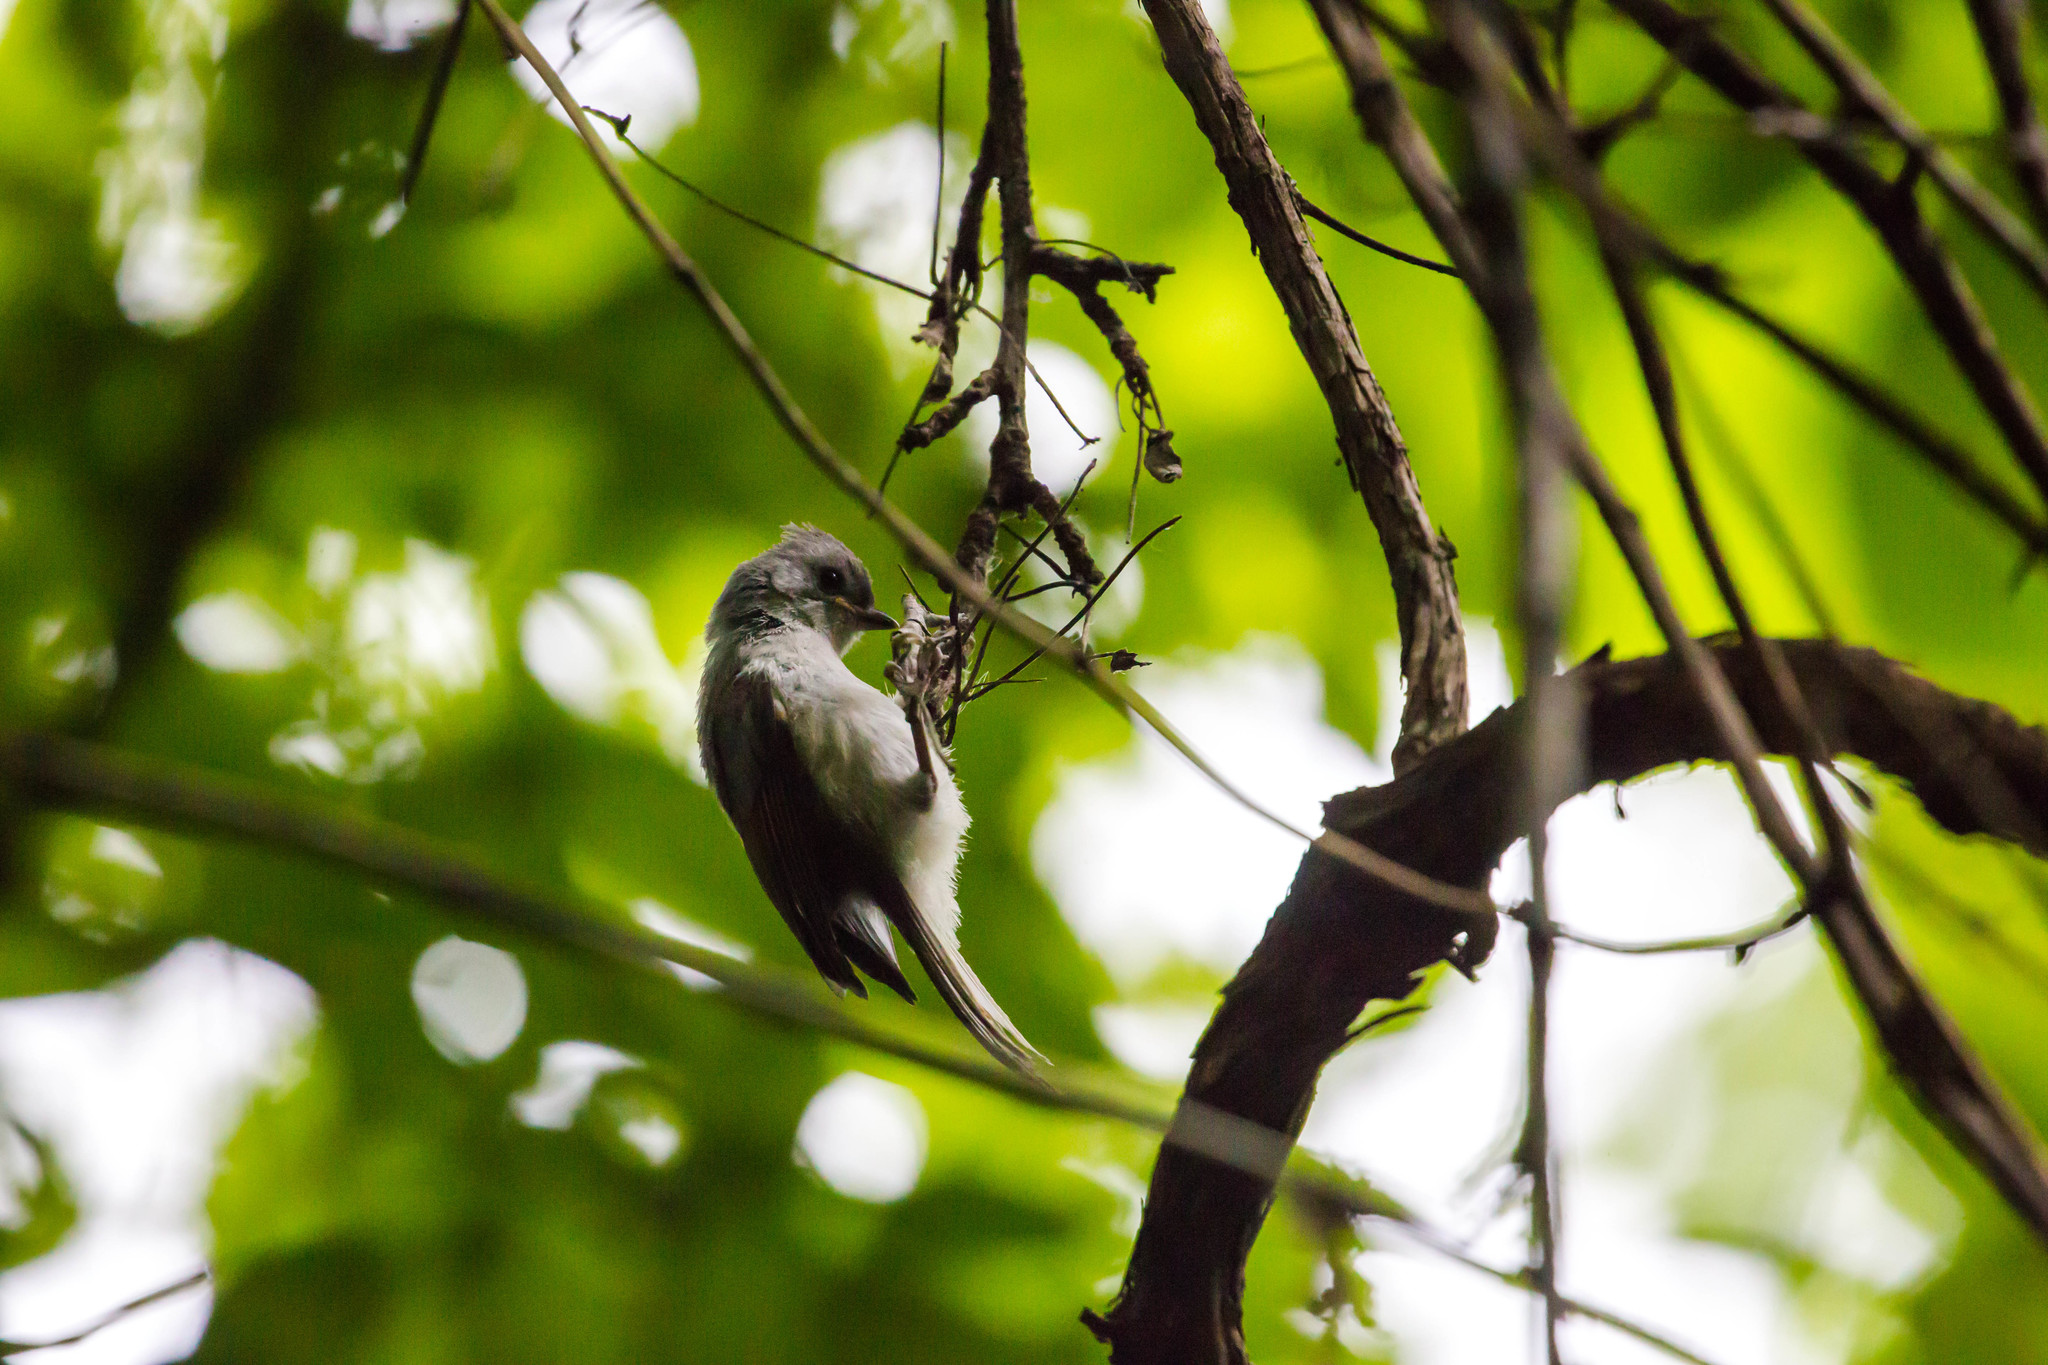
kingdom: Animalia
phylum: Chordata
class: Aves
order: Passeriformes
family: Paridae
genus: Baeolophus
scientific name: Baeolophus bicolor
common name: Tufted titmouse
